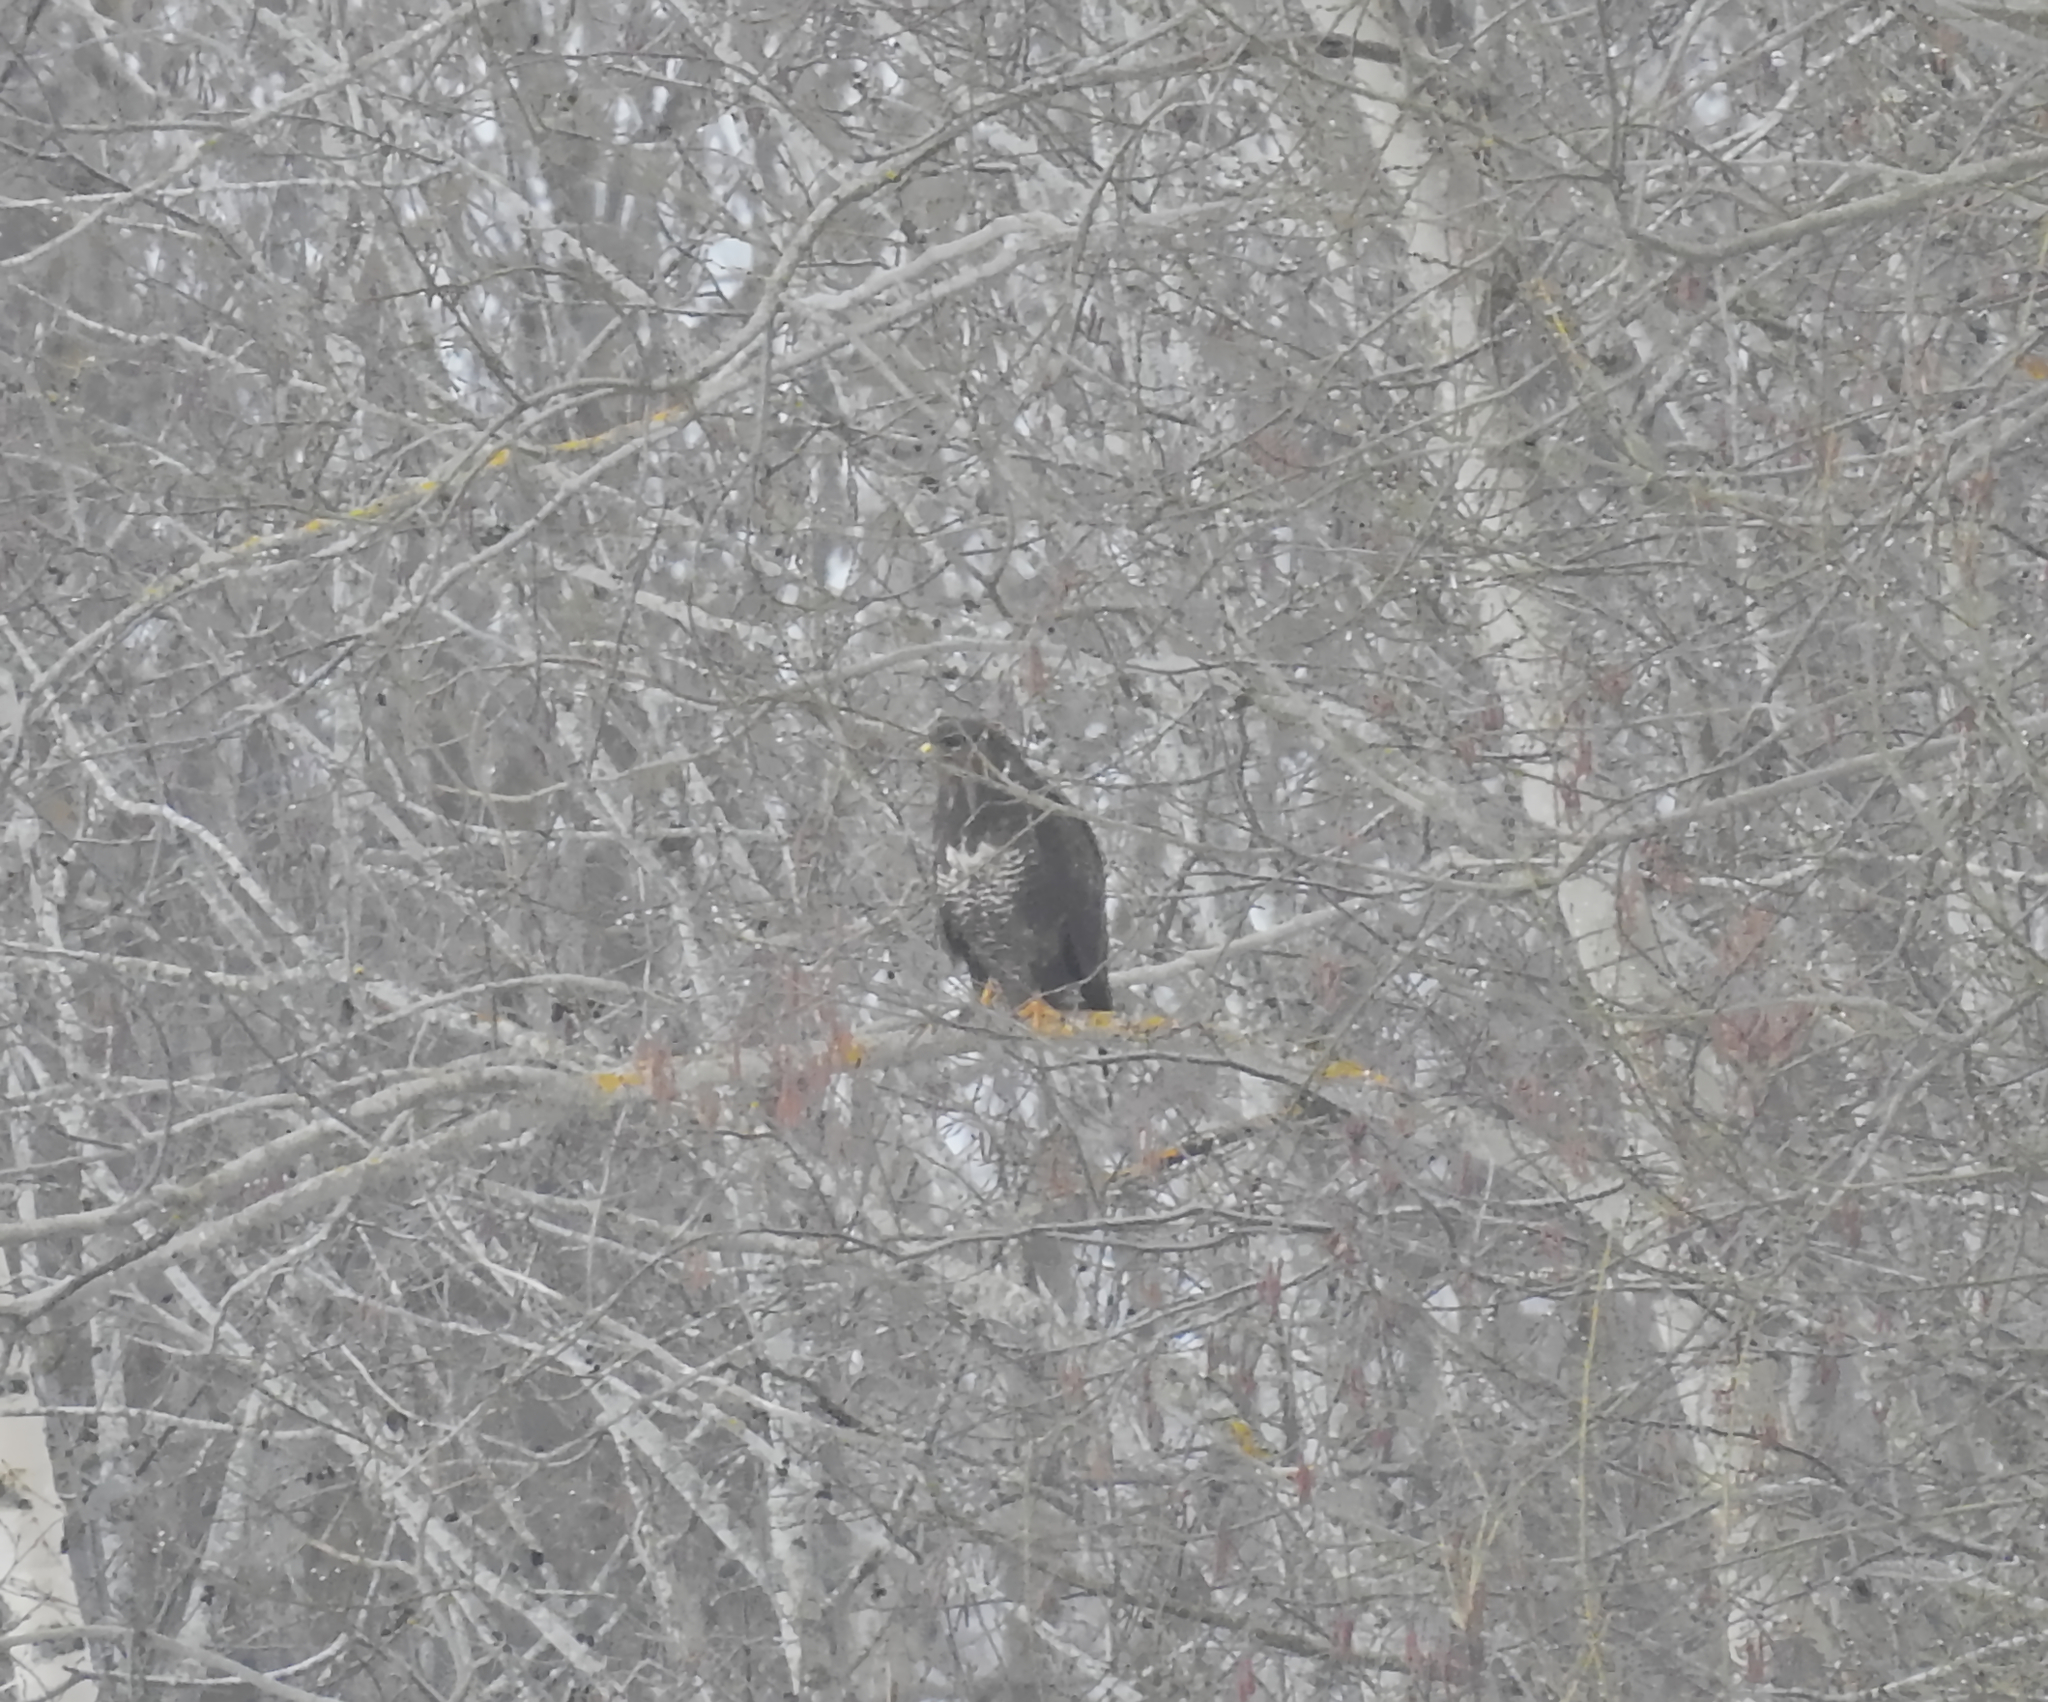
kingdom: Animalia
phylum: Chordata
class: Aves
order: Accipitriformes
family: Accipitridae
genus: Buteo
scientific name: Buteo buteo
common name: Common buzzard
